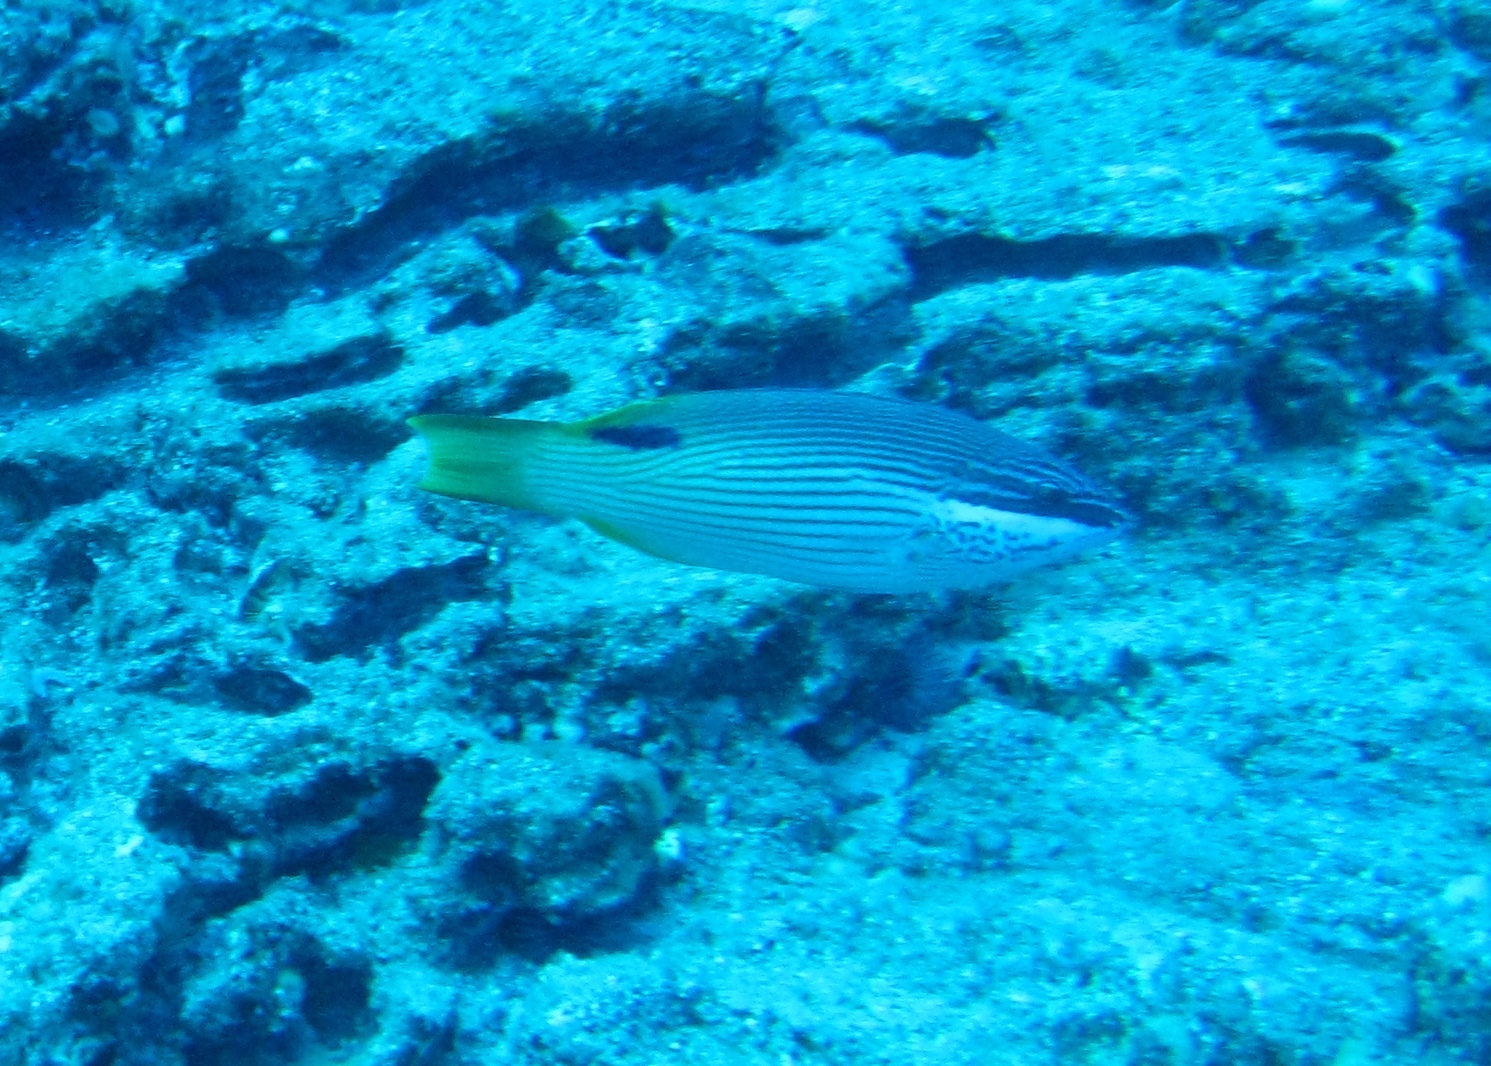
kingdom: Animalia
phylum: Chordata
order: Perciformes
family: Labridae
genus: Bodianus
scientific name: Bodianus albotaeniatus
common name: Hawaiian hogfish
